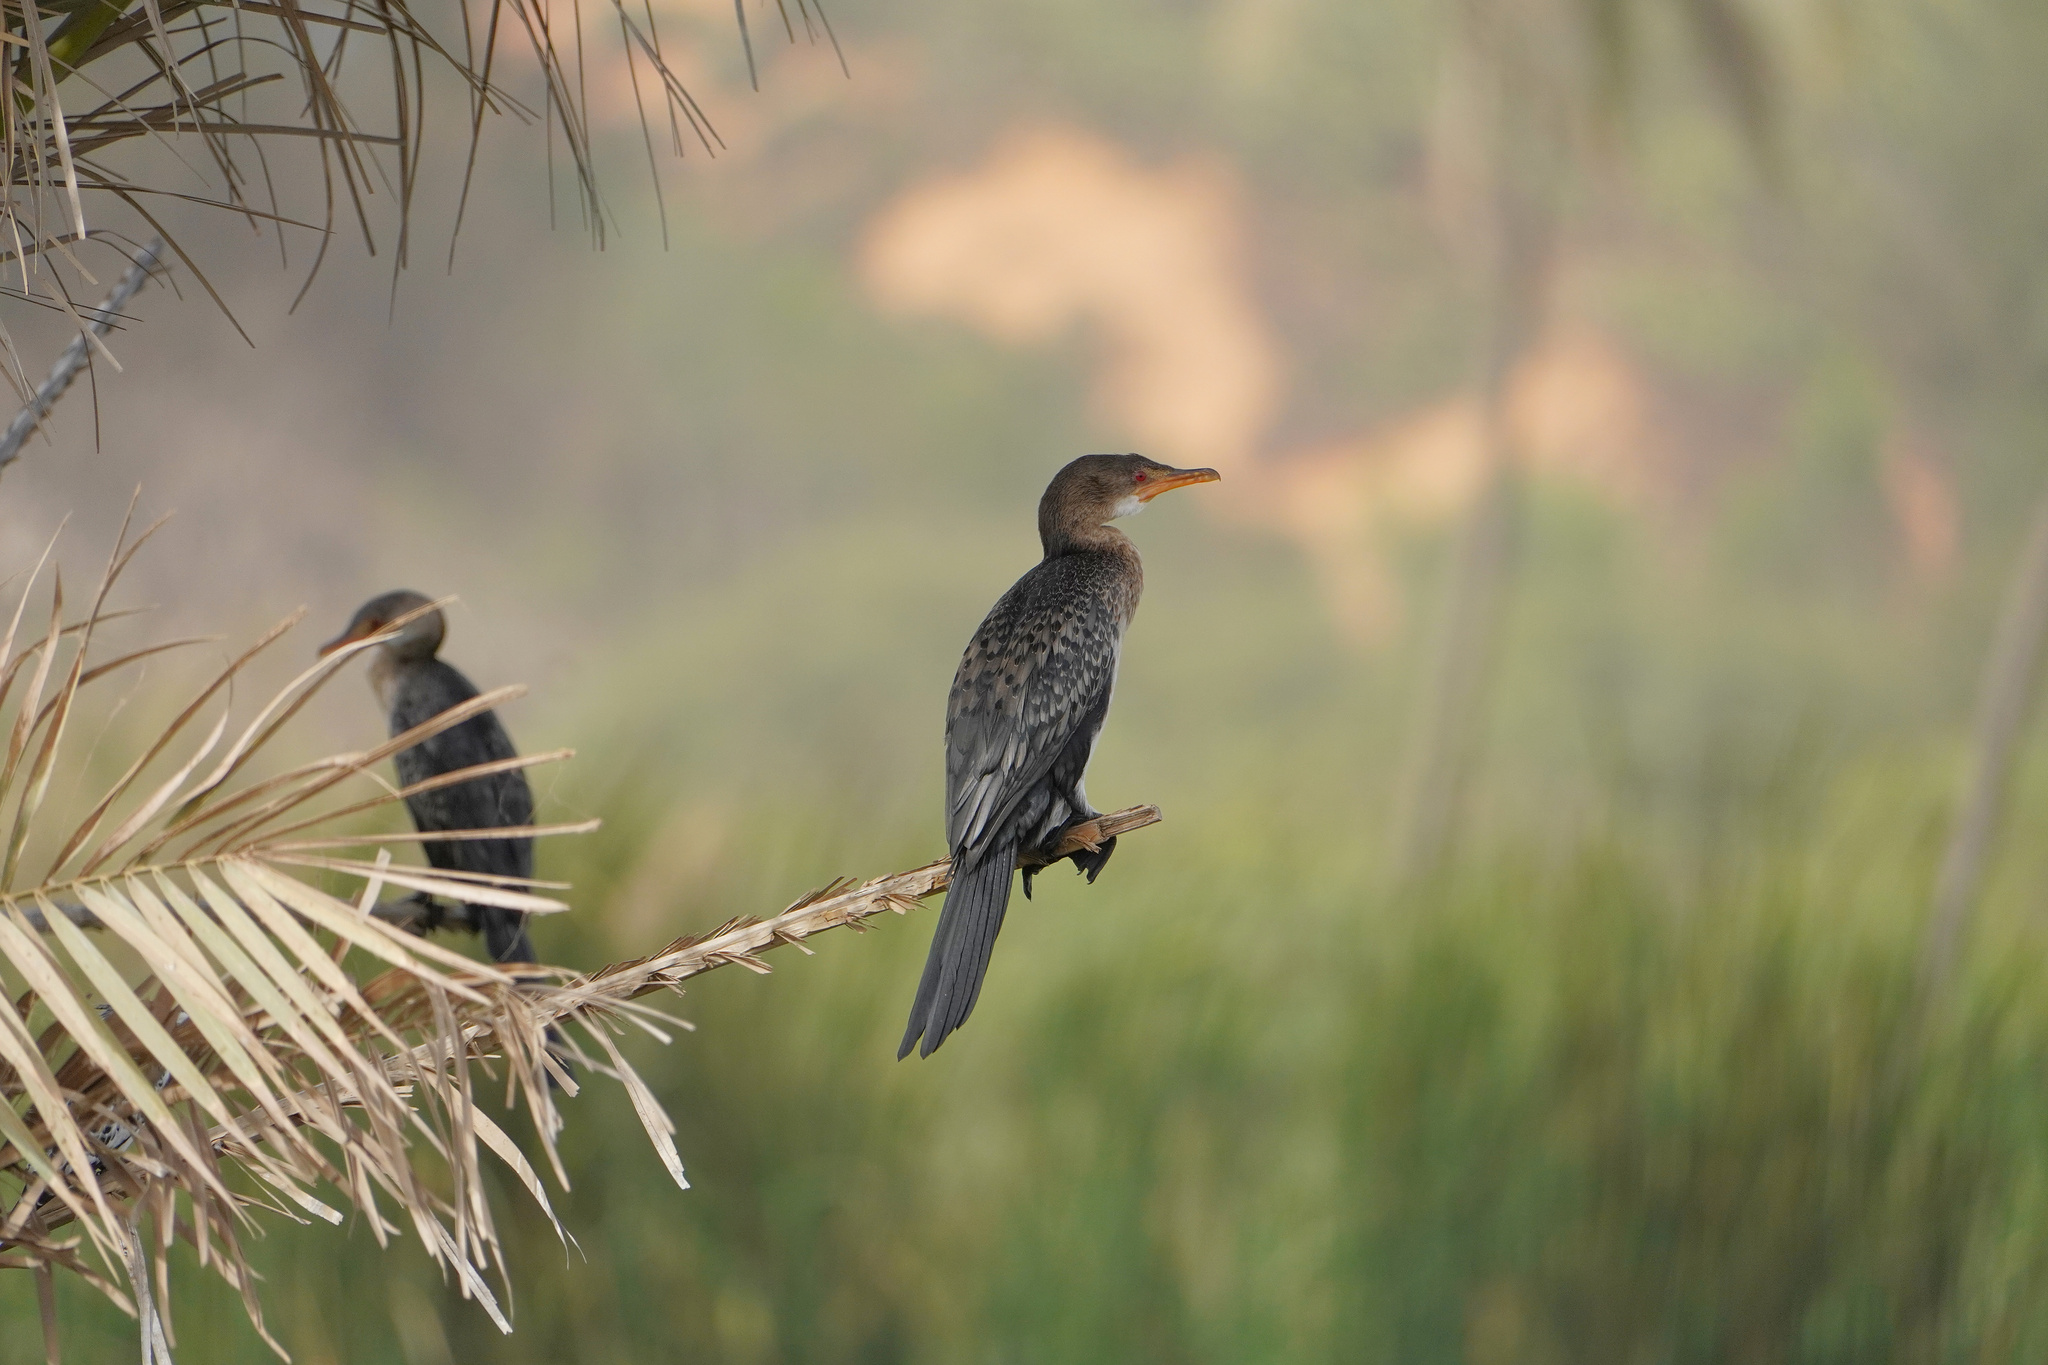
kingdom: Animalia
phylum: Chordata
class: Aves
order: Suliformes
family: Phalacrocoracidae
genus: Microcarbo
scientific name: Microcarbo africanus
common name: Long-tailed cormorant
